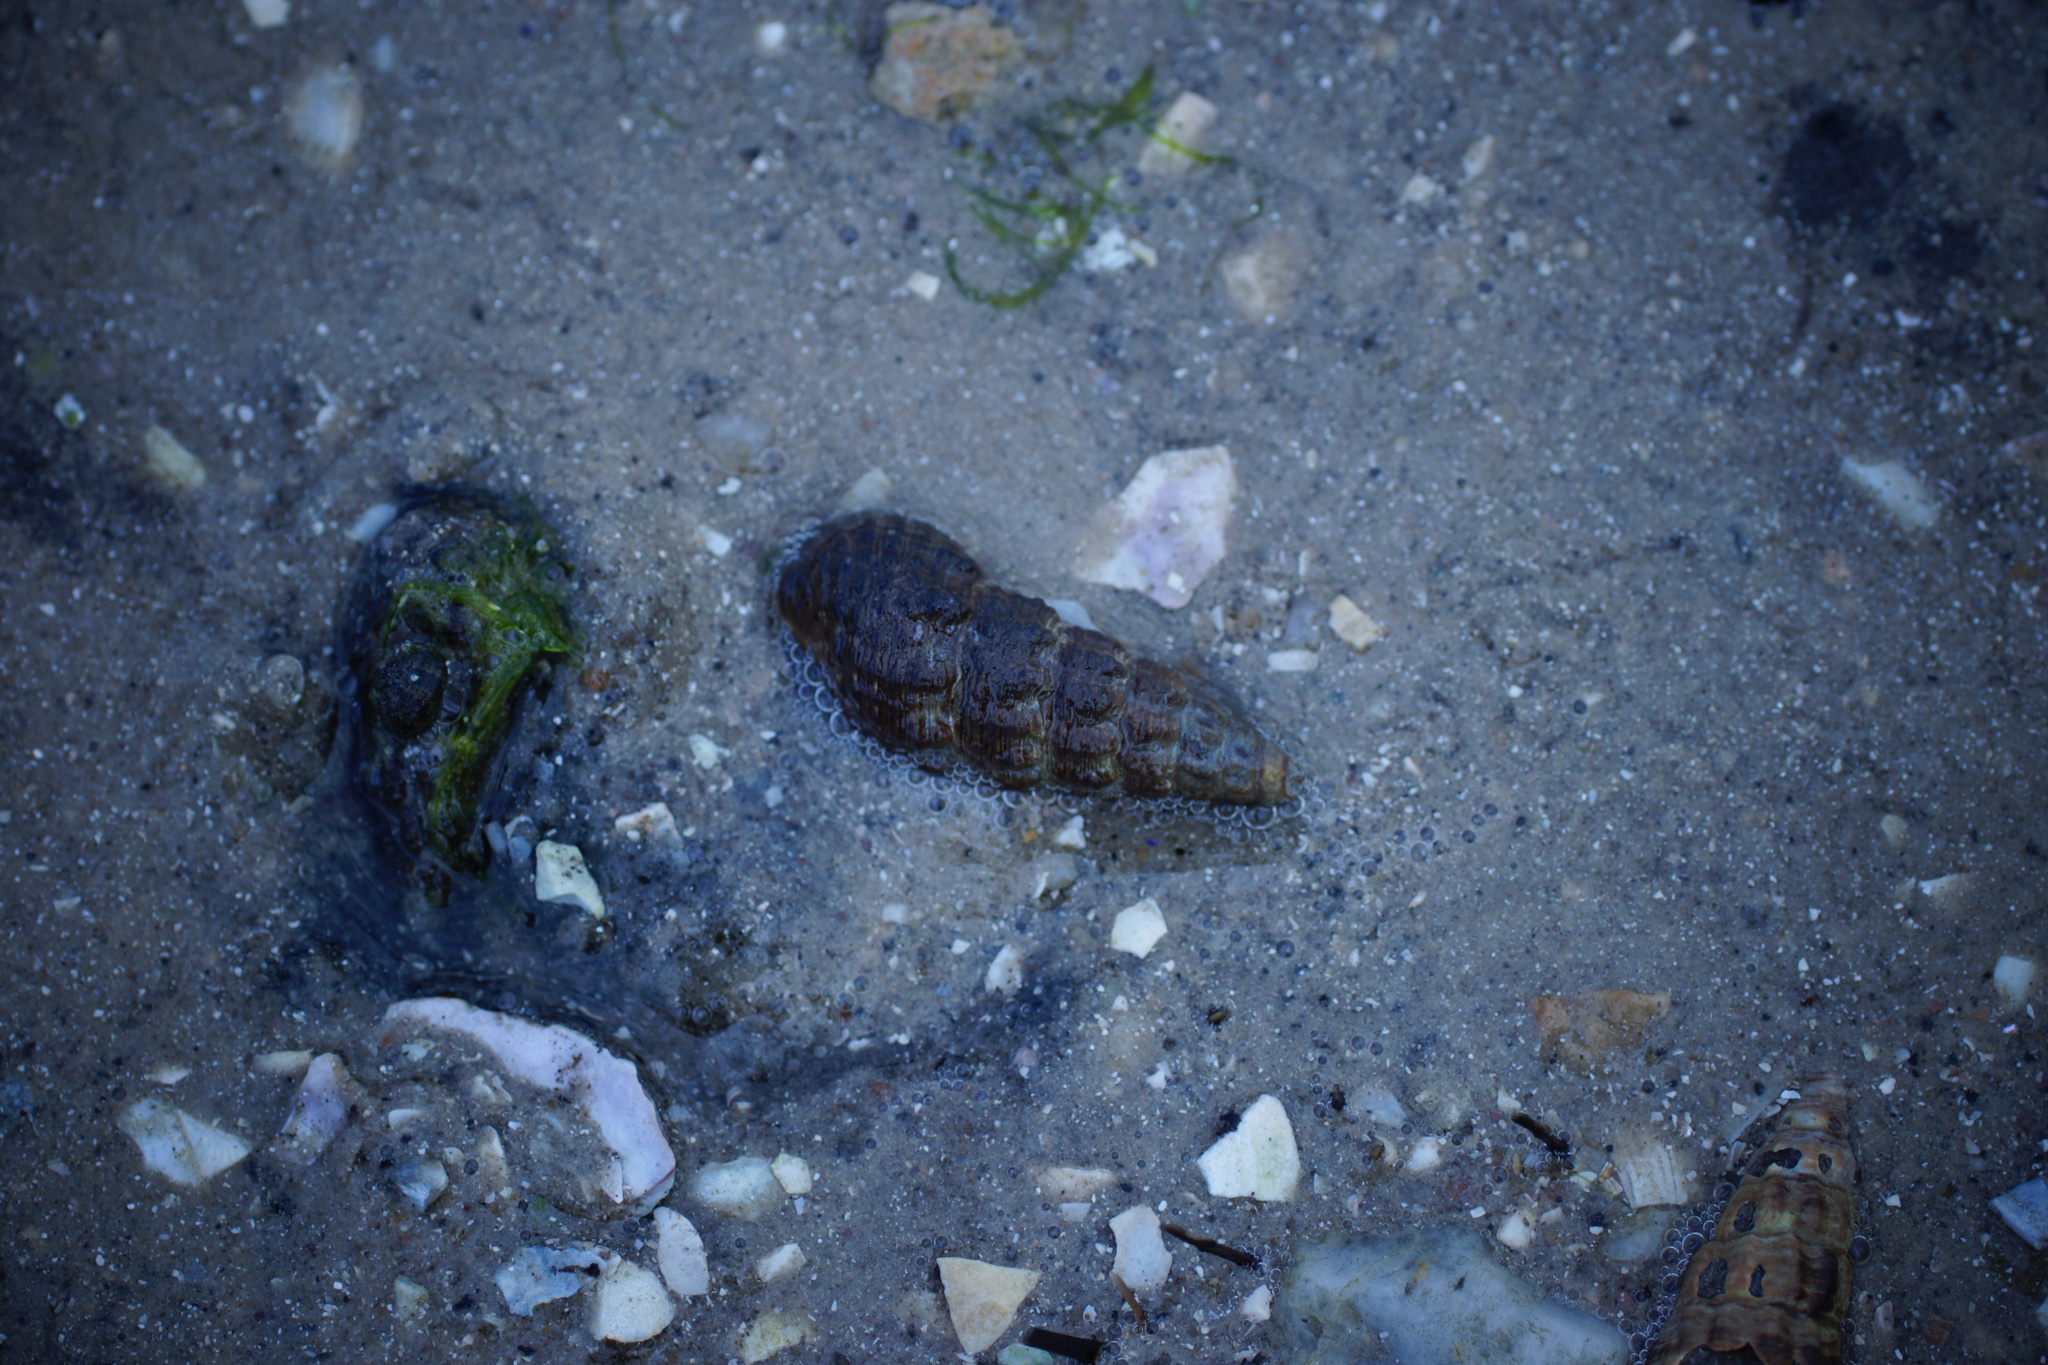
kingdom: Animalia
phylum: Mollusca
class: Gastropoda
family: Batillariidae
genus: Batillaria
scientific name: Batillaria australis
